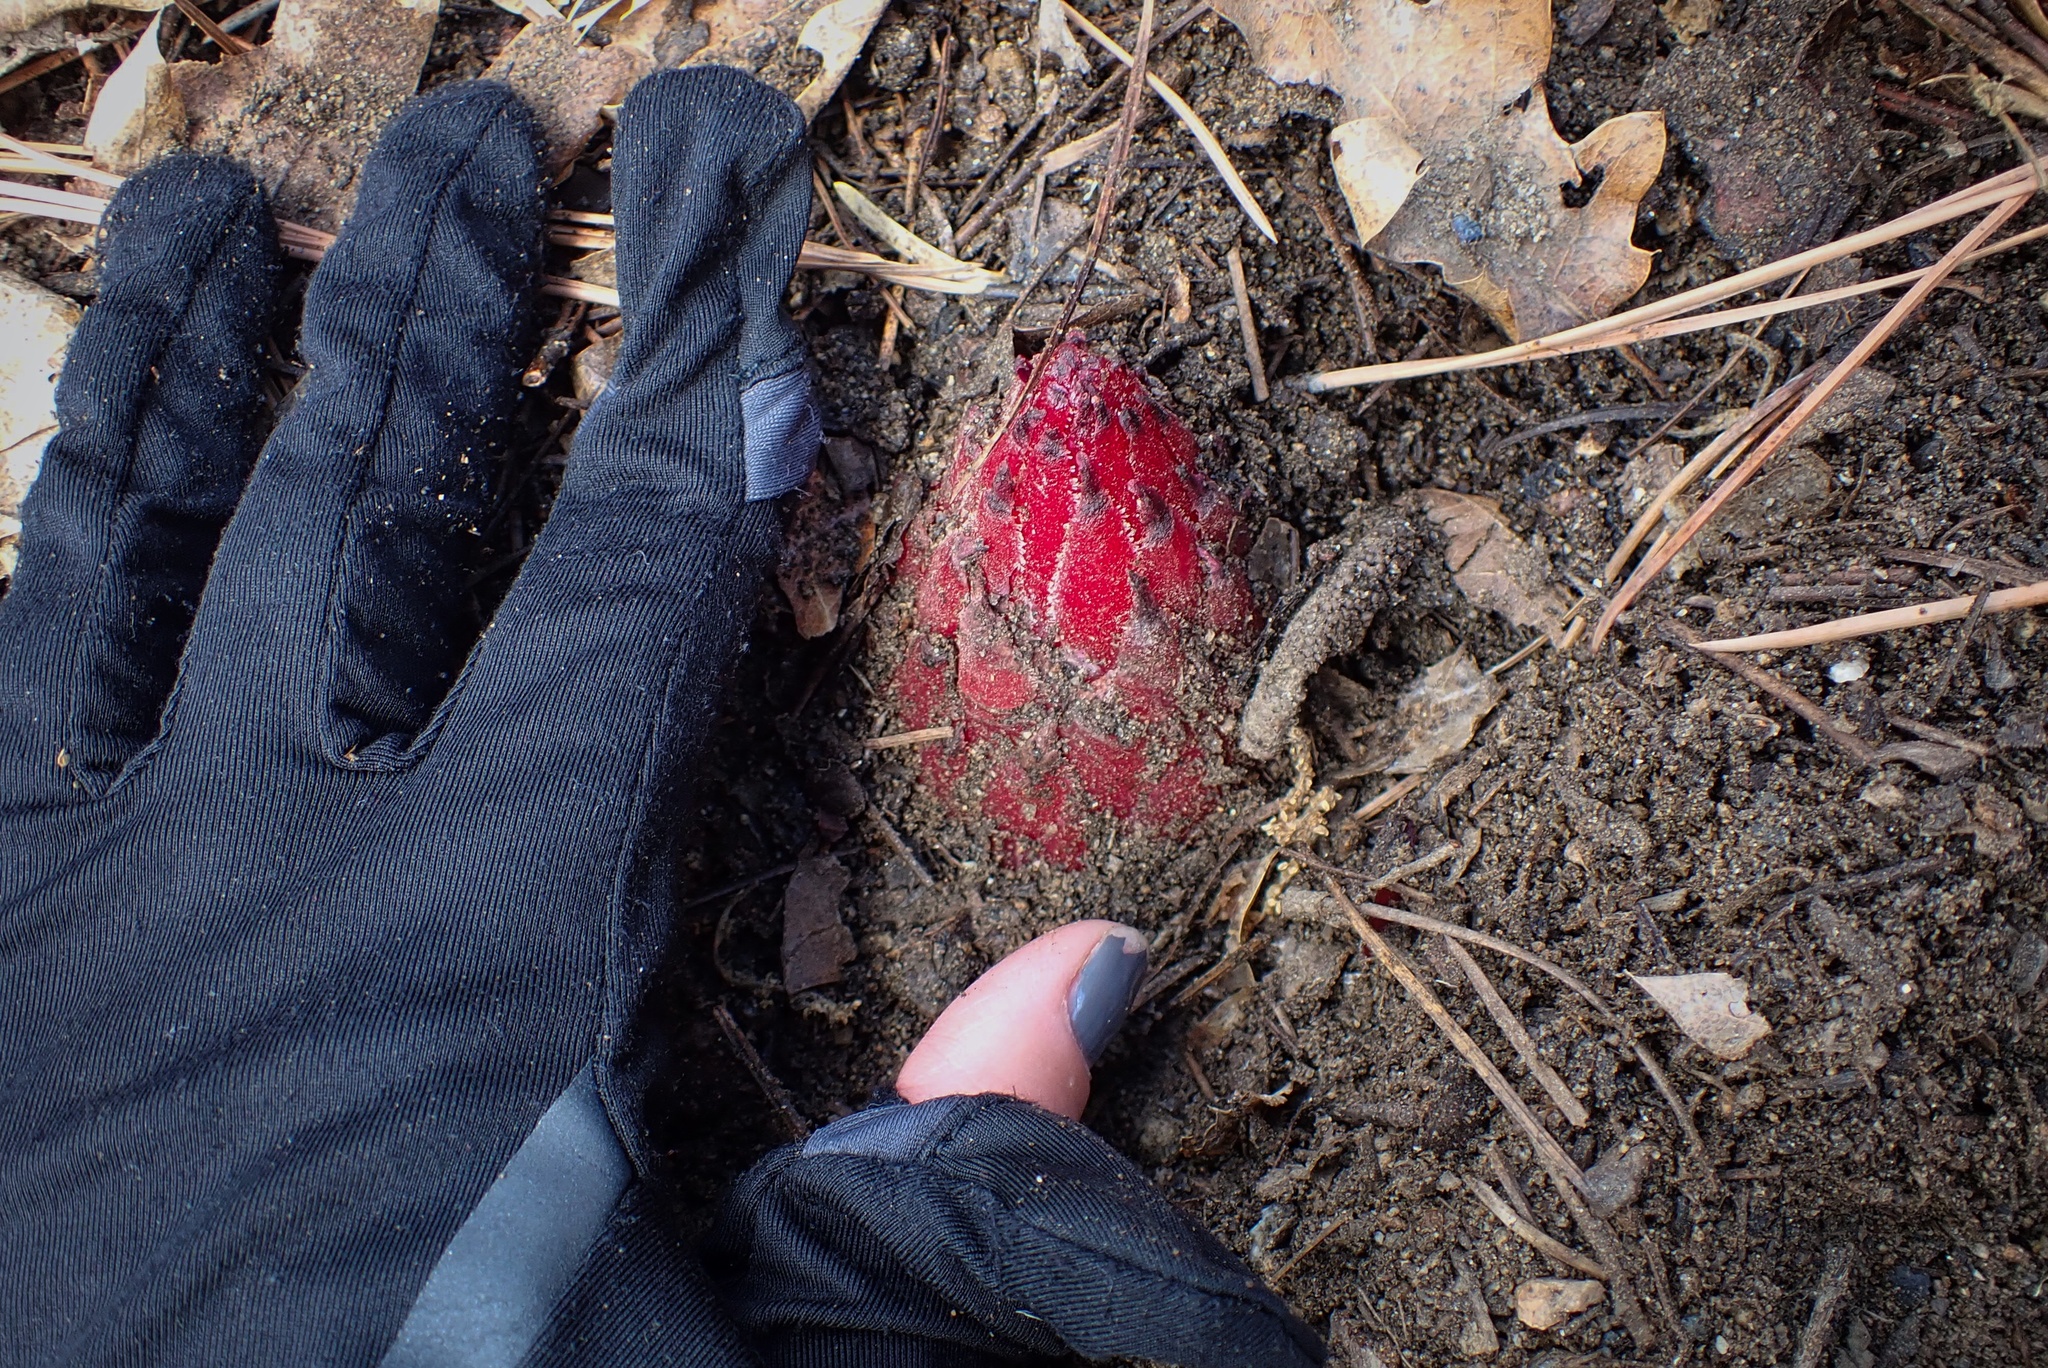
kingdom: Plantae
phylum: Tracheophyta
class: Magnoliopsida
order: Ericales
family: Ericaceae
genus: Sarcodes
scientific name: Sarcodes sanguinea
